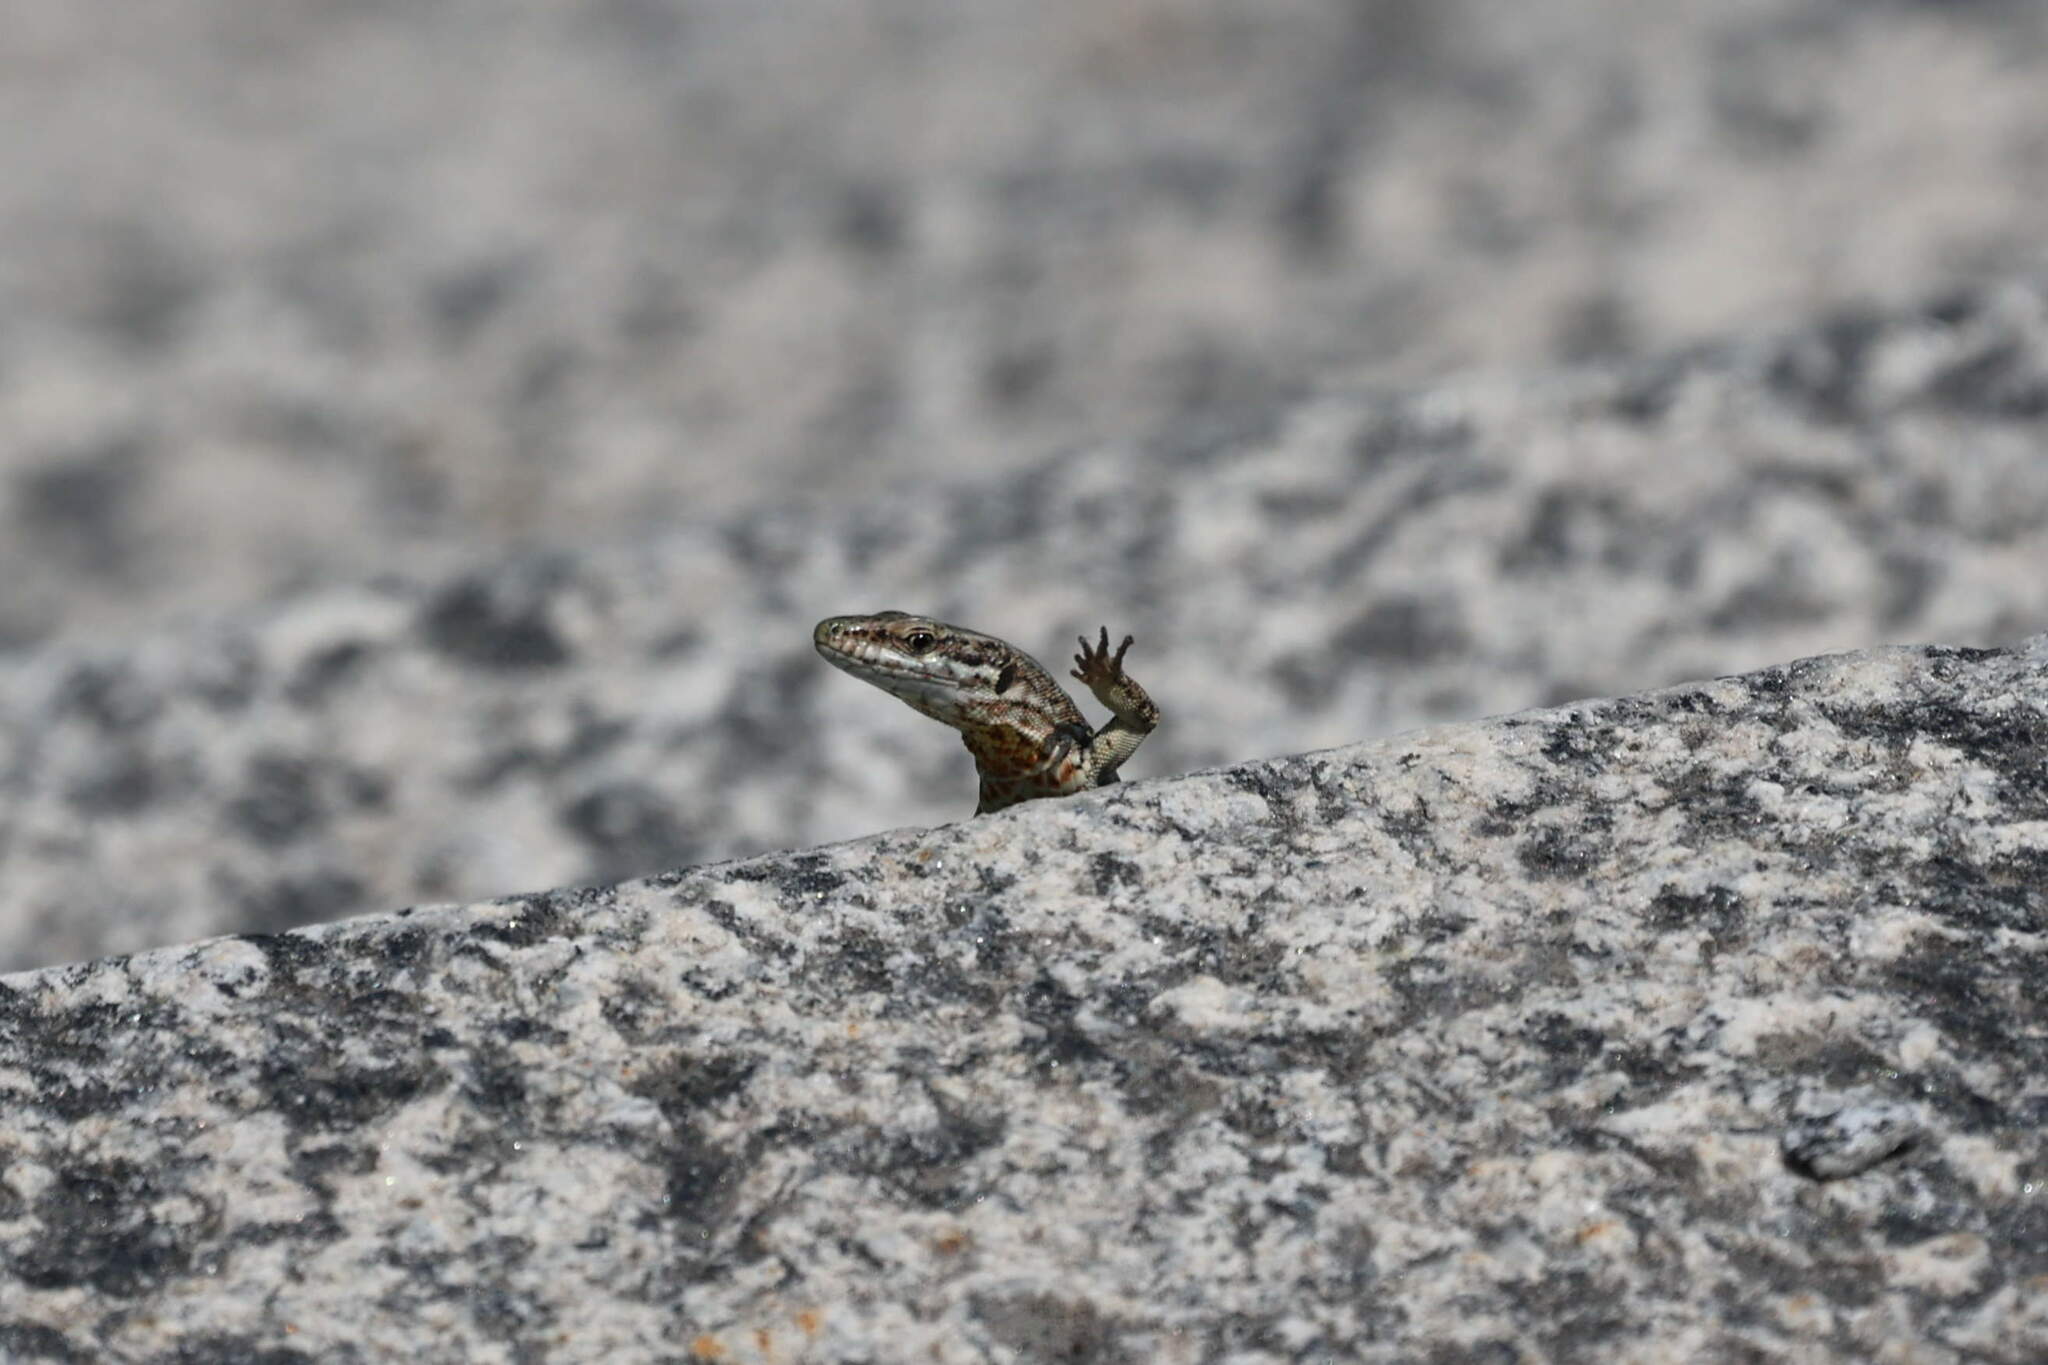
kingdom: Animalia
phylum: Chordata
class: Squamata
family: Lacertidae
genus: Podarcis
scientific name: Podarcis muralis
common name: Common wall lizard
